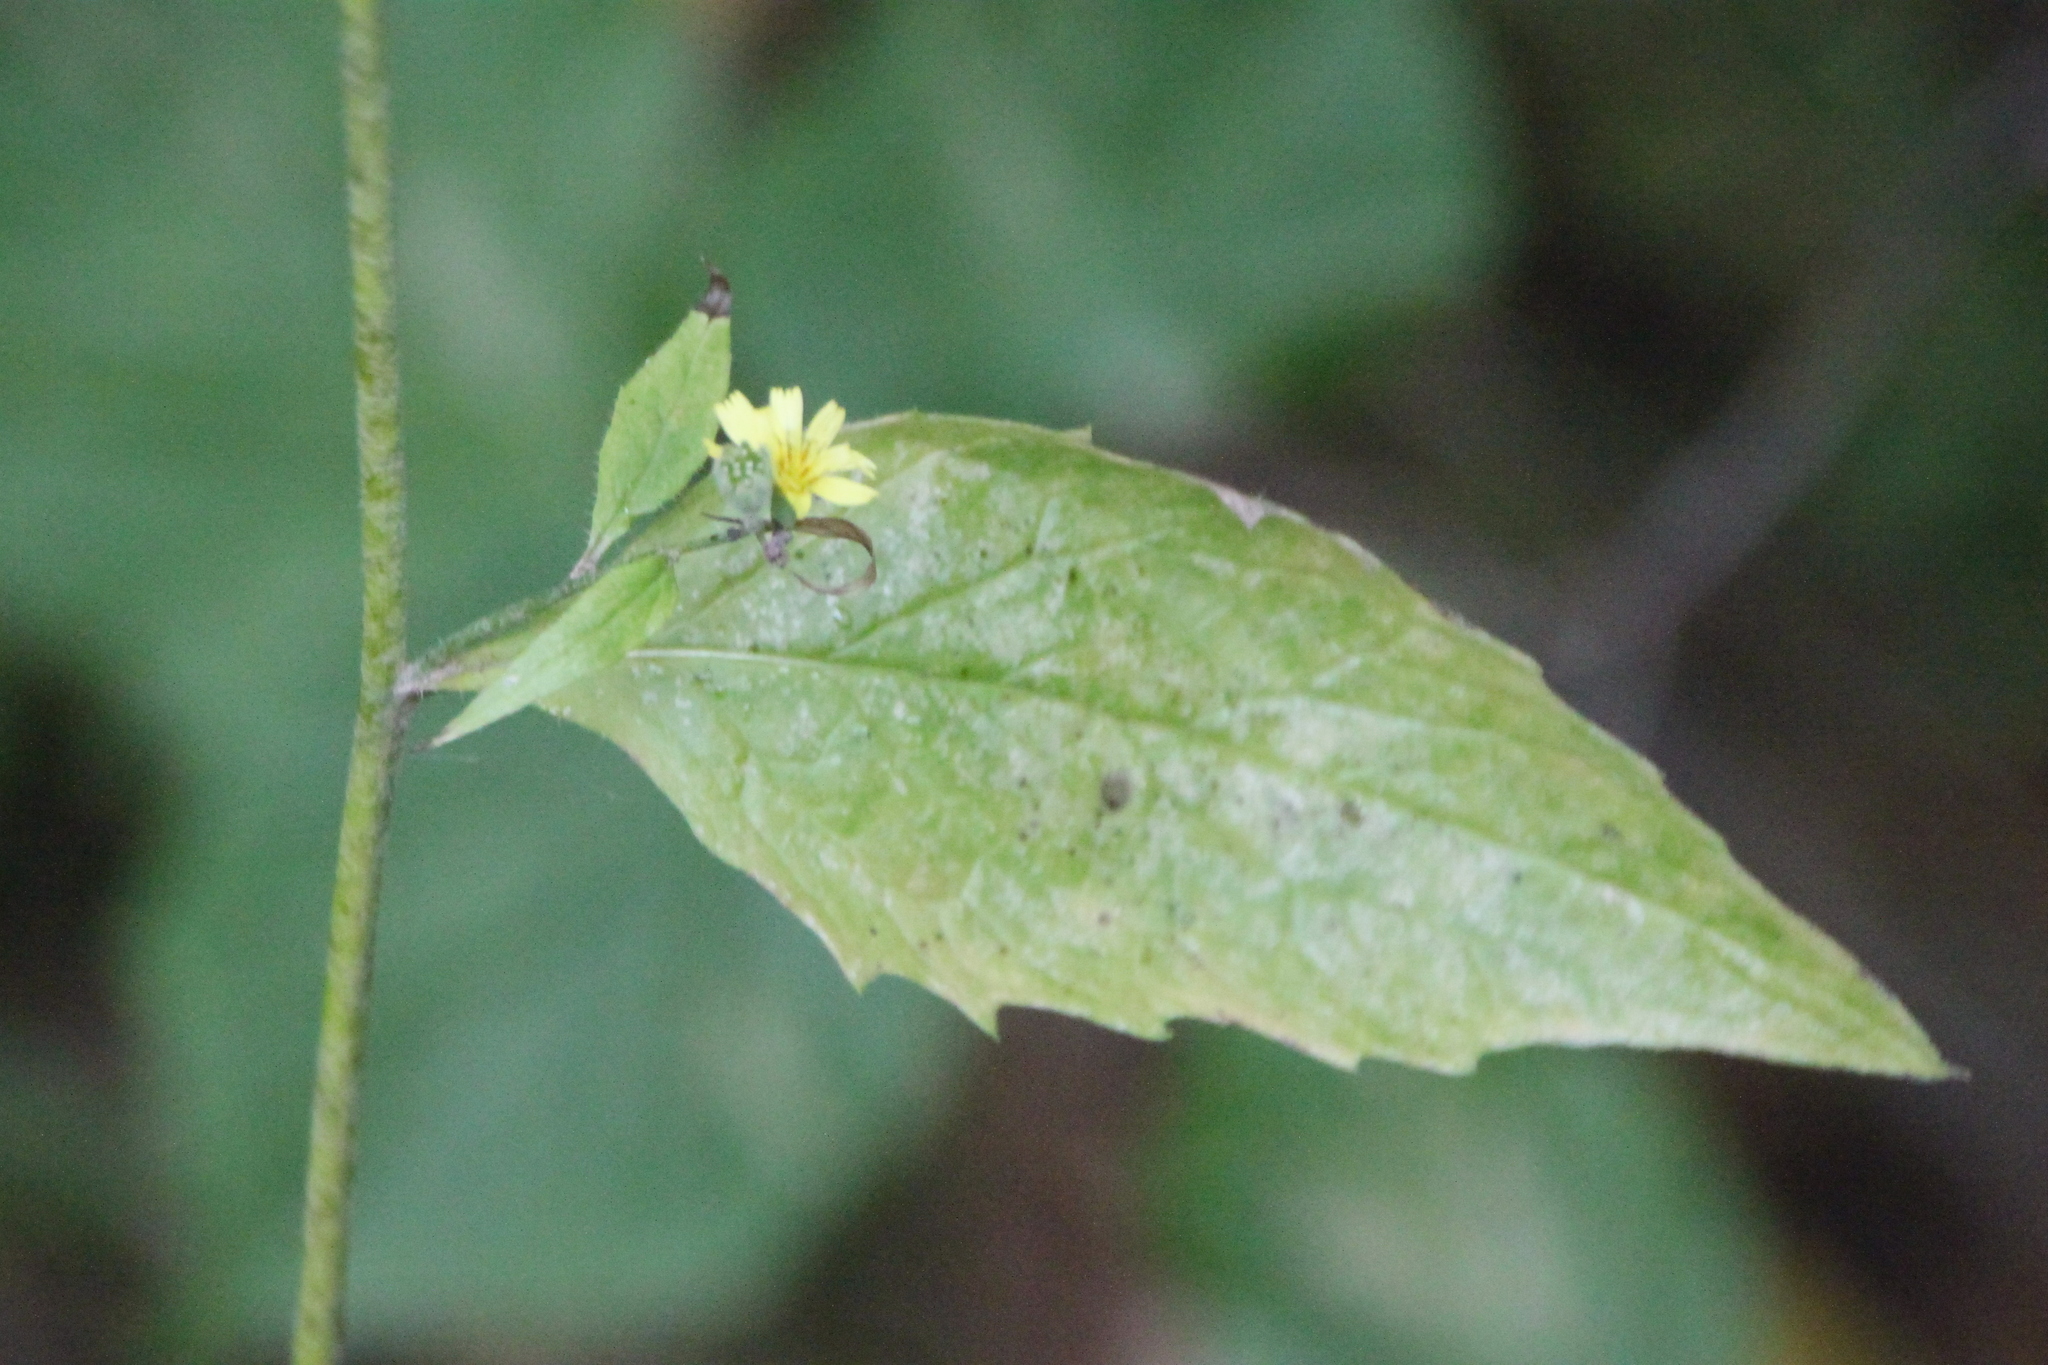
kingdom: Plantae
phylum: Tracheophyta
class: Magnoliopsida
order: Asterales
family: Asteraceae
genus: Lapsana
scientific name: Lapsana communis
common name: Nipplewort
